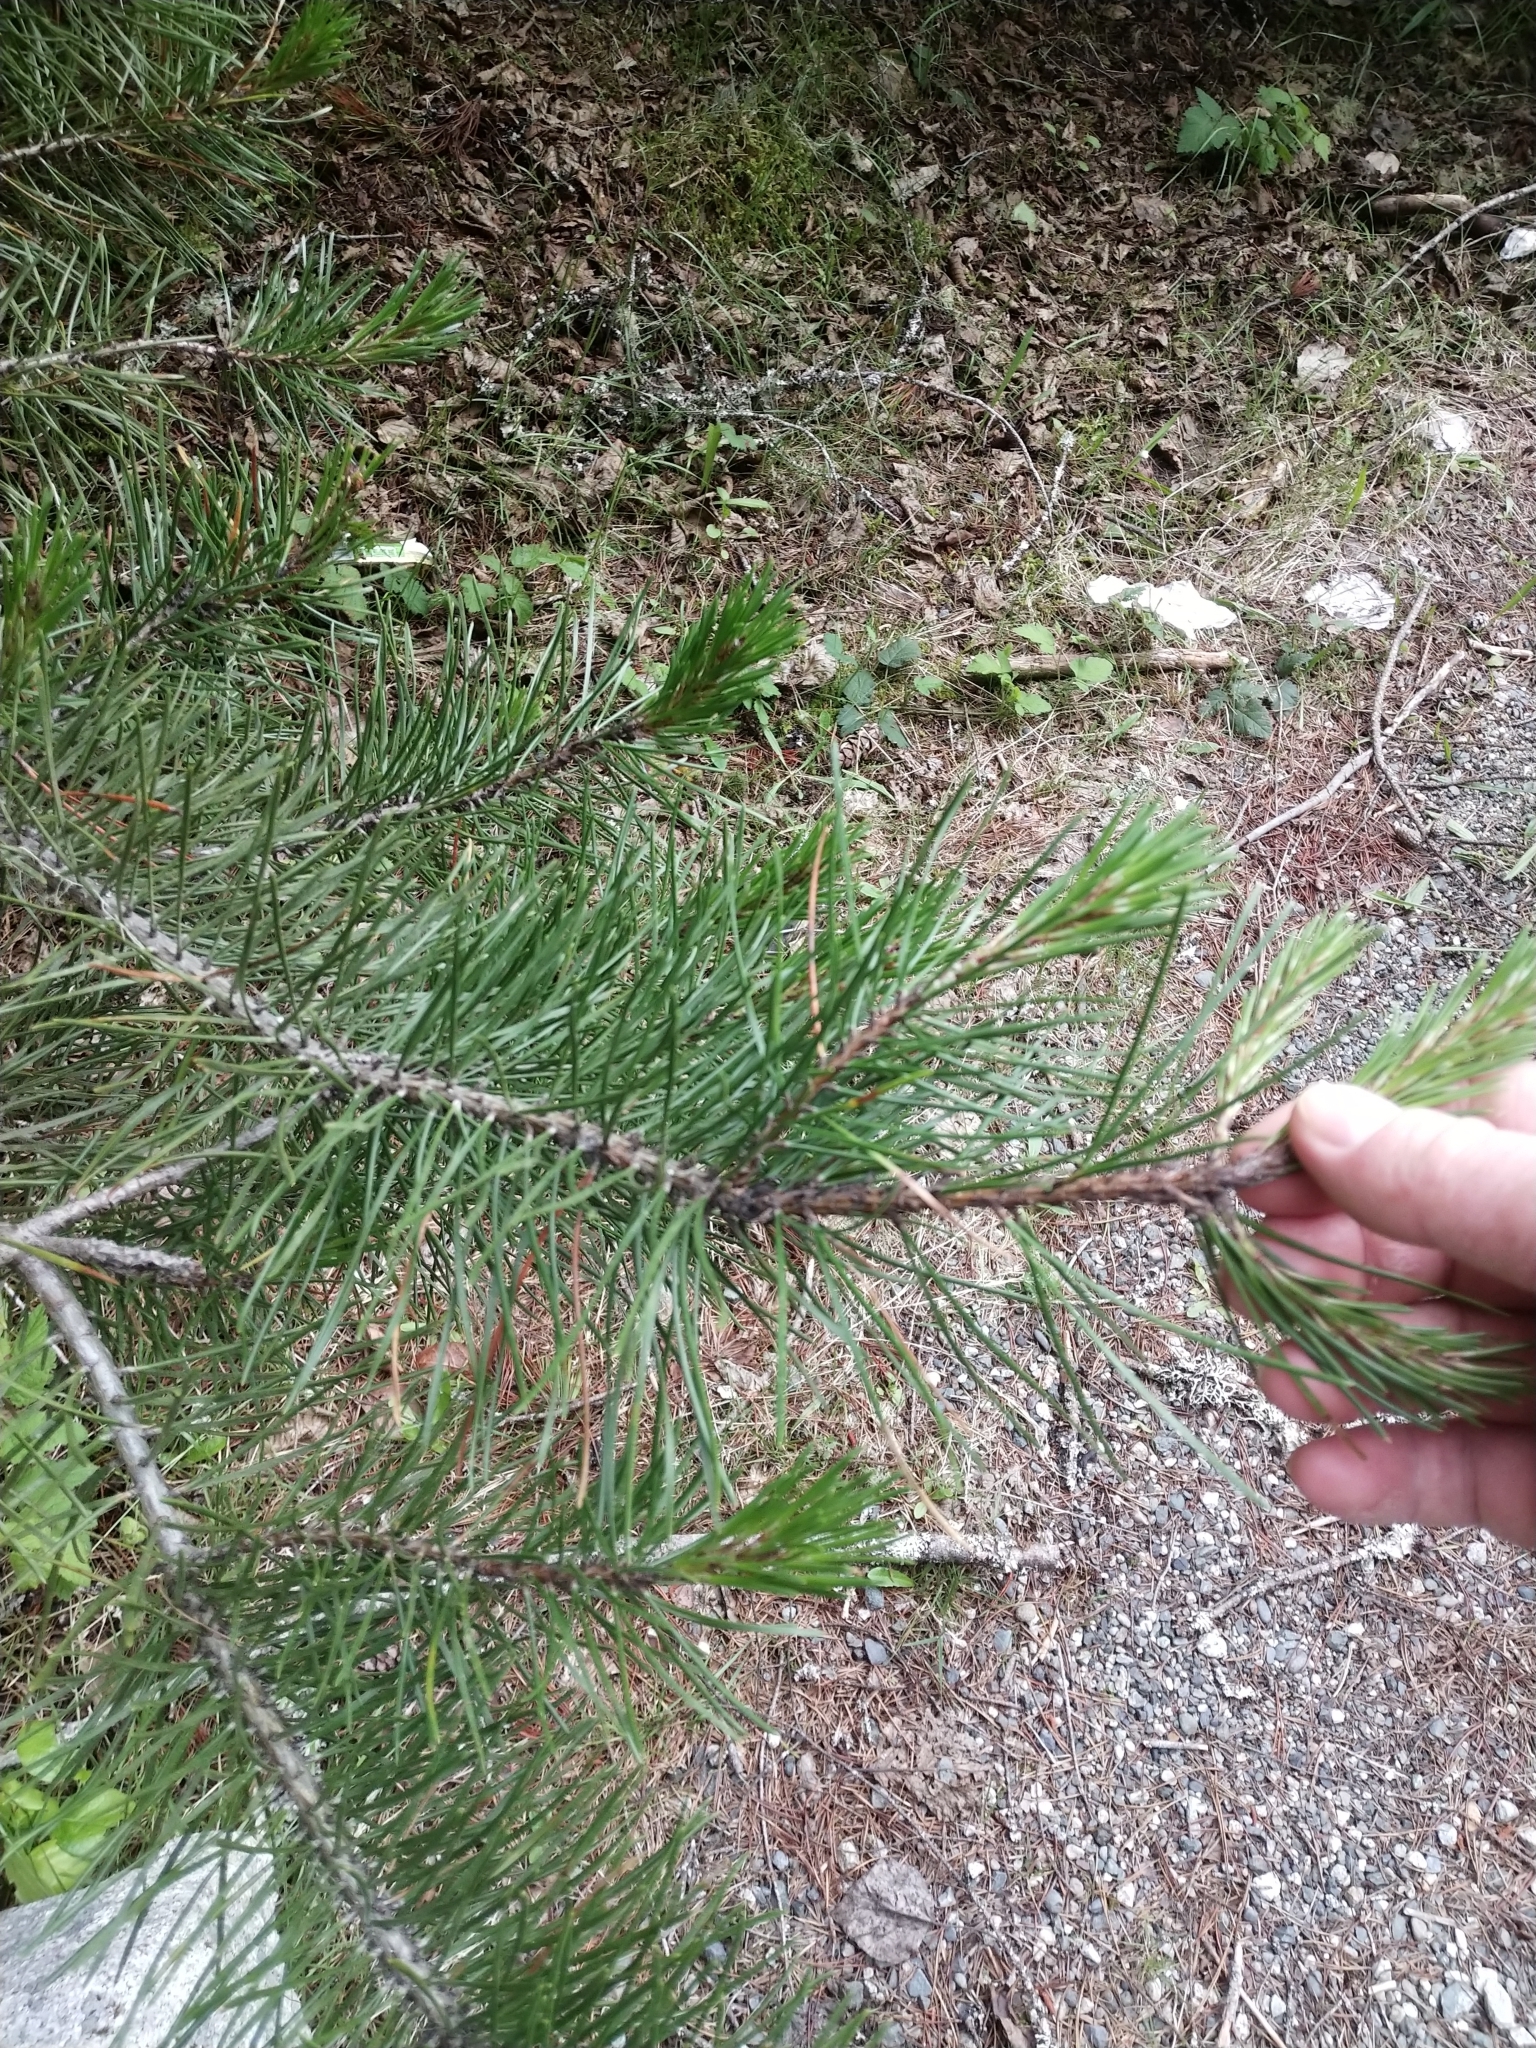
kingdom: Plantae
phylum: Tracheophyta
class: Pinopsida
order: Pinales
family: Pinaceae
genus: Pinus
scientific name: Pinus contorta
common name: Lodgepole pine
